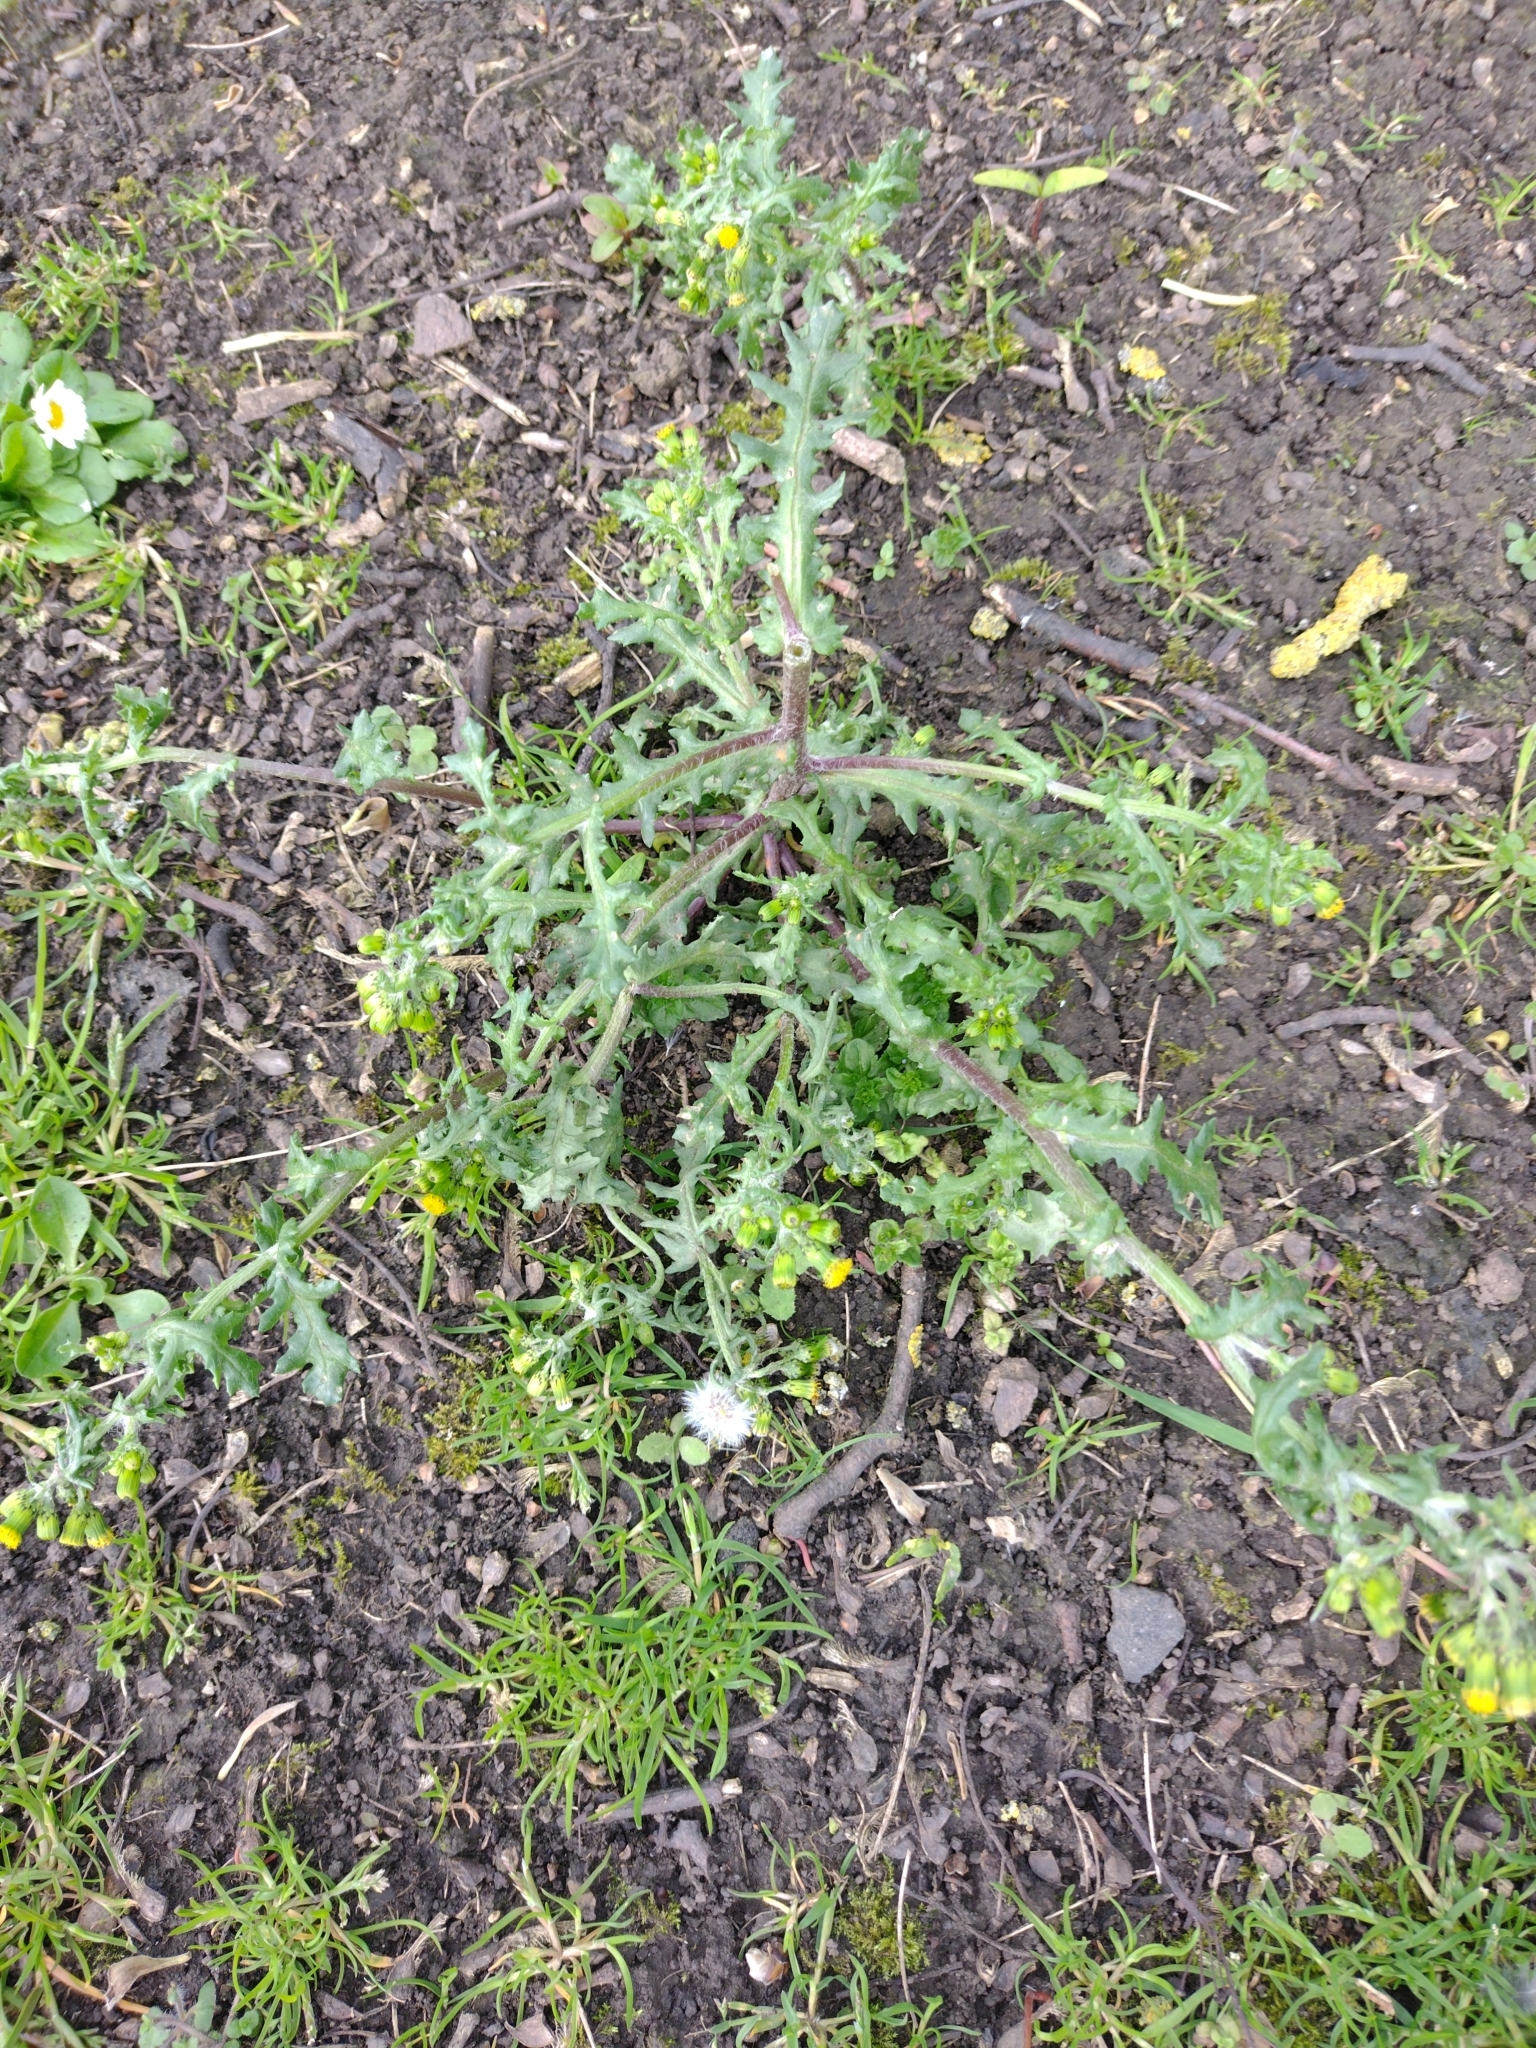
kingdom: Plantae
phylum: Tracheophyta
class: Magnoliopsida
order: Asterales
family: Asteraceae
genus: Senecio
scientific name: Senecio vulgaris
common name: Old-man-in-the-spring
